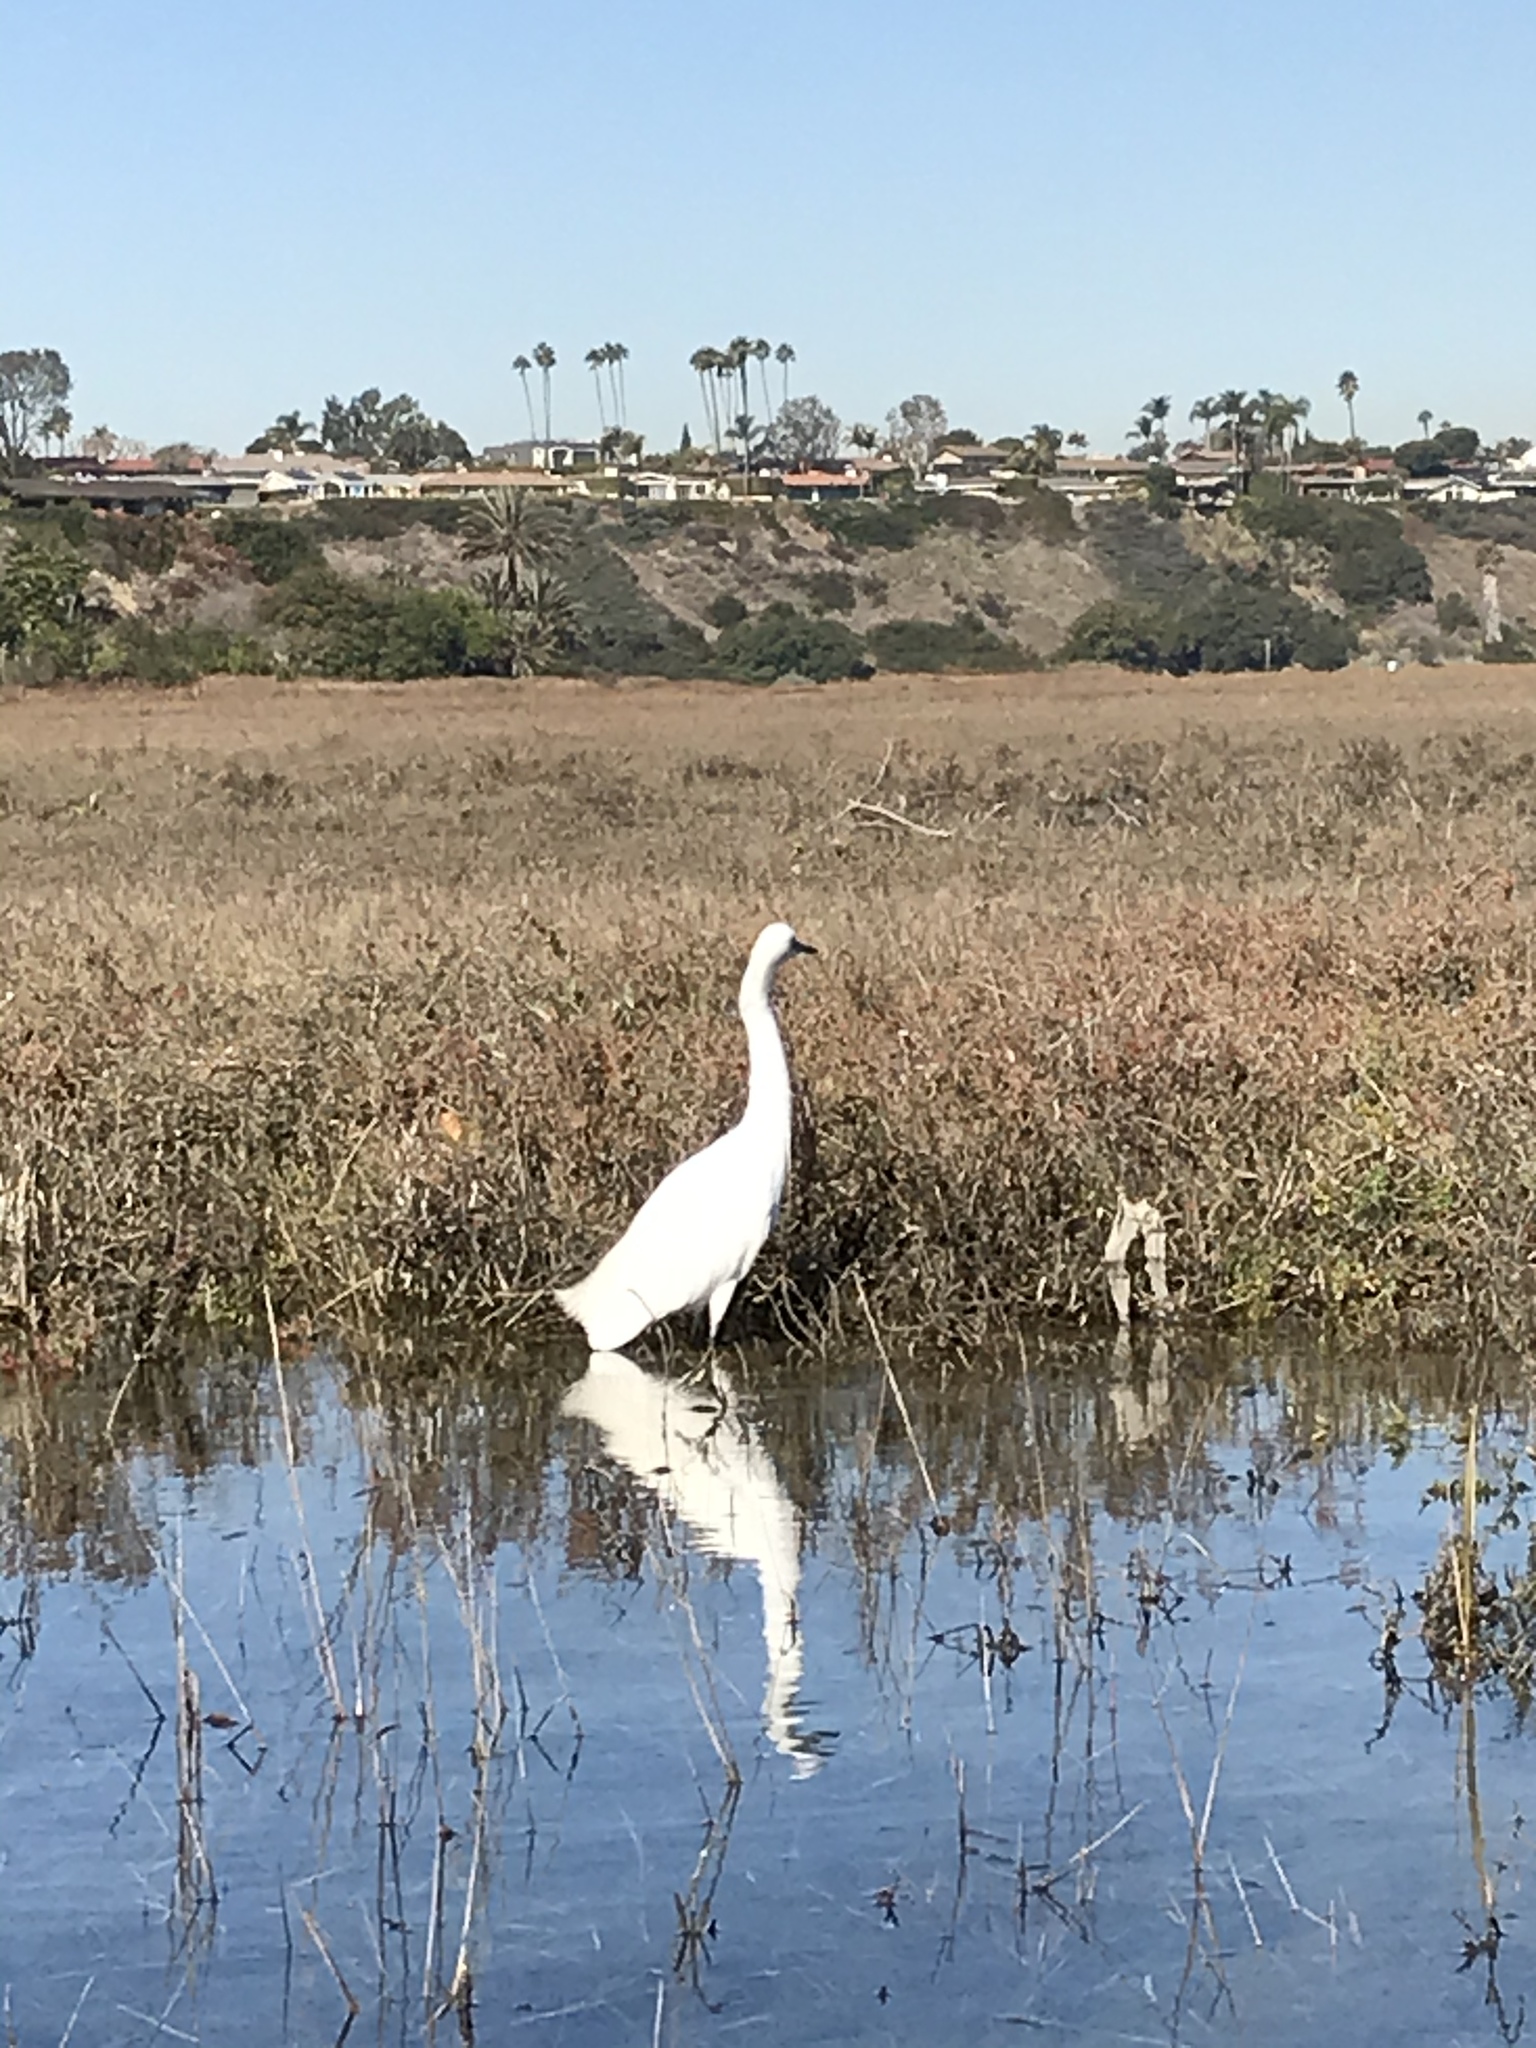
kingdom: Animalia
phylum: Chordata
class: Aves
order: Pelecaniformes
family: Ardeidae
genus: Egretta
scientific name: Egretta thula
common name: Snowy egret
